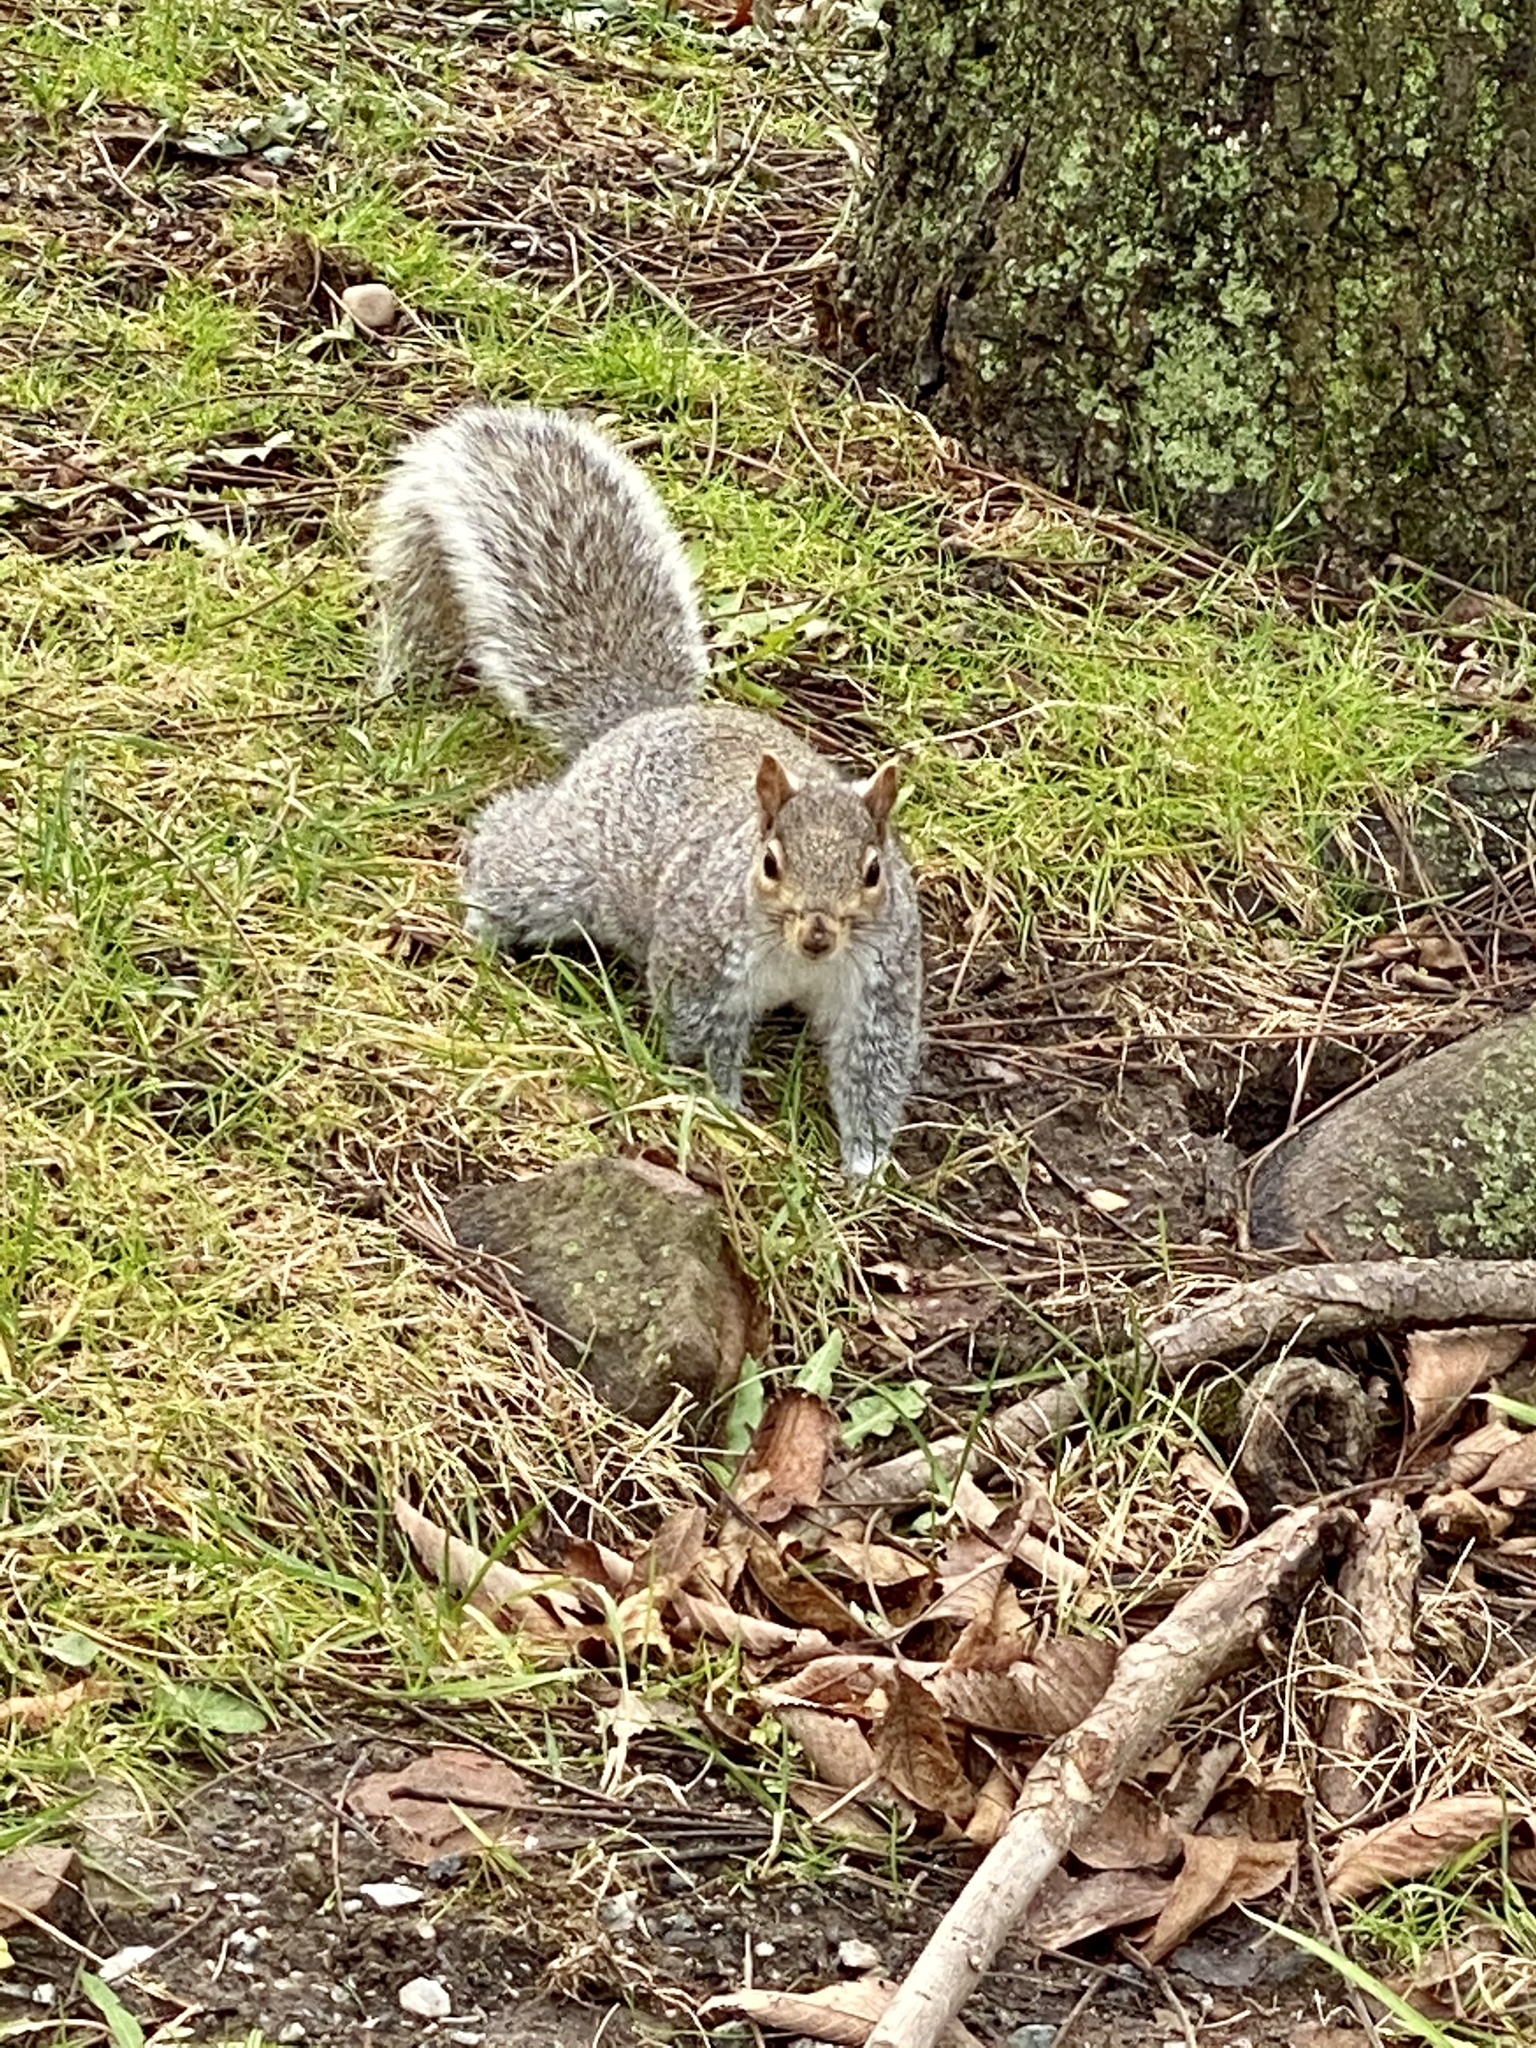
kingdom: Animalia
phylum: Chordata
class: Mammalia
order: Rodentia
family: Sciuridae
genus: Sciurus
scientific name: Sciurus carolinensis
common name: Eastern gray squirrel
